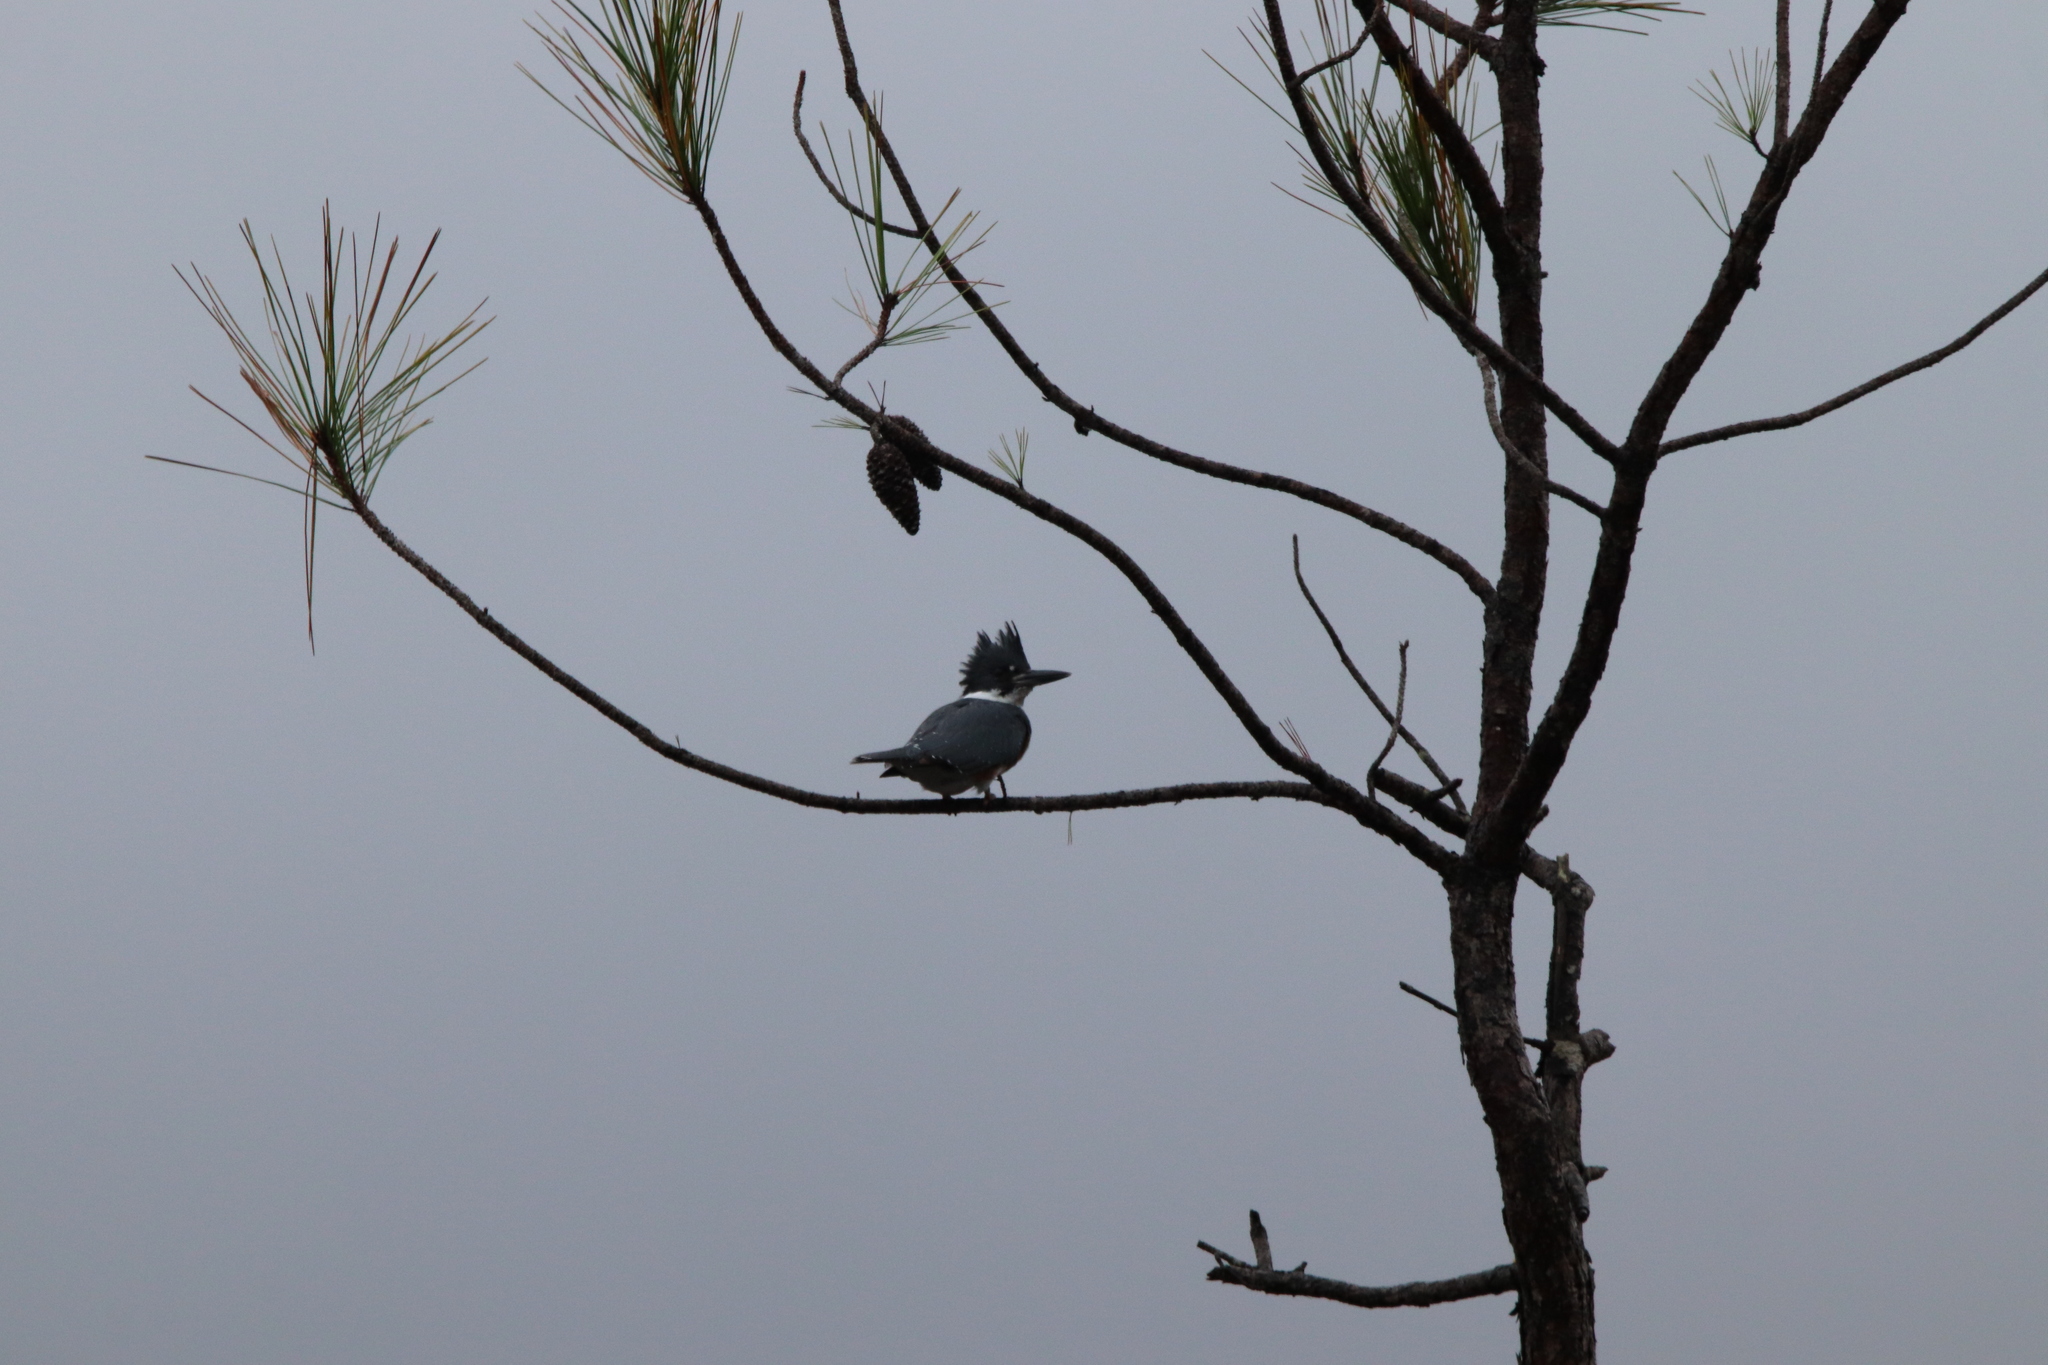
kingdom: Animalia
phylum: Chordata
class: Aves
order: Coraciiformes
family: Alcedinidae
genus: Megaceryle
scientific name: Megaceryle alcyon
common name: Belted kingfisher
